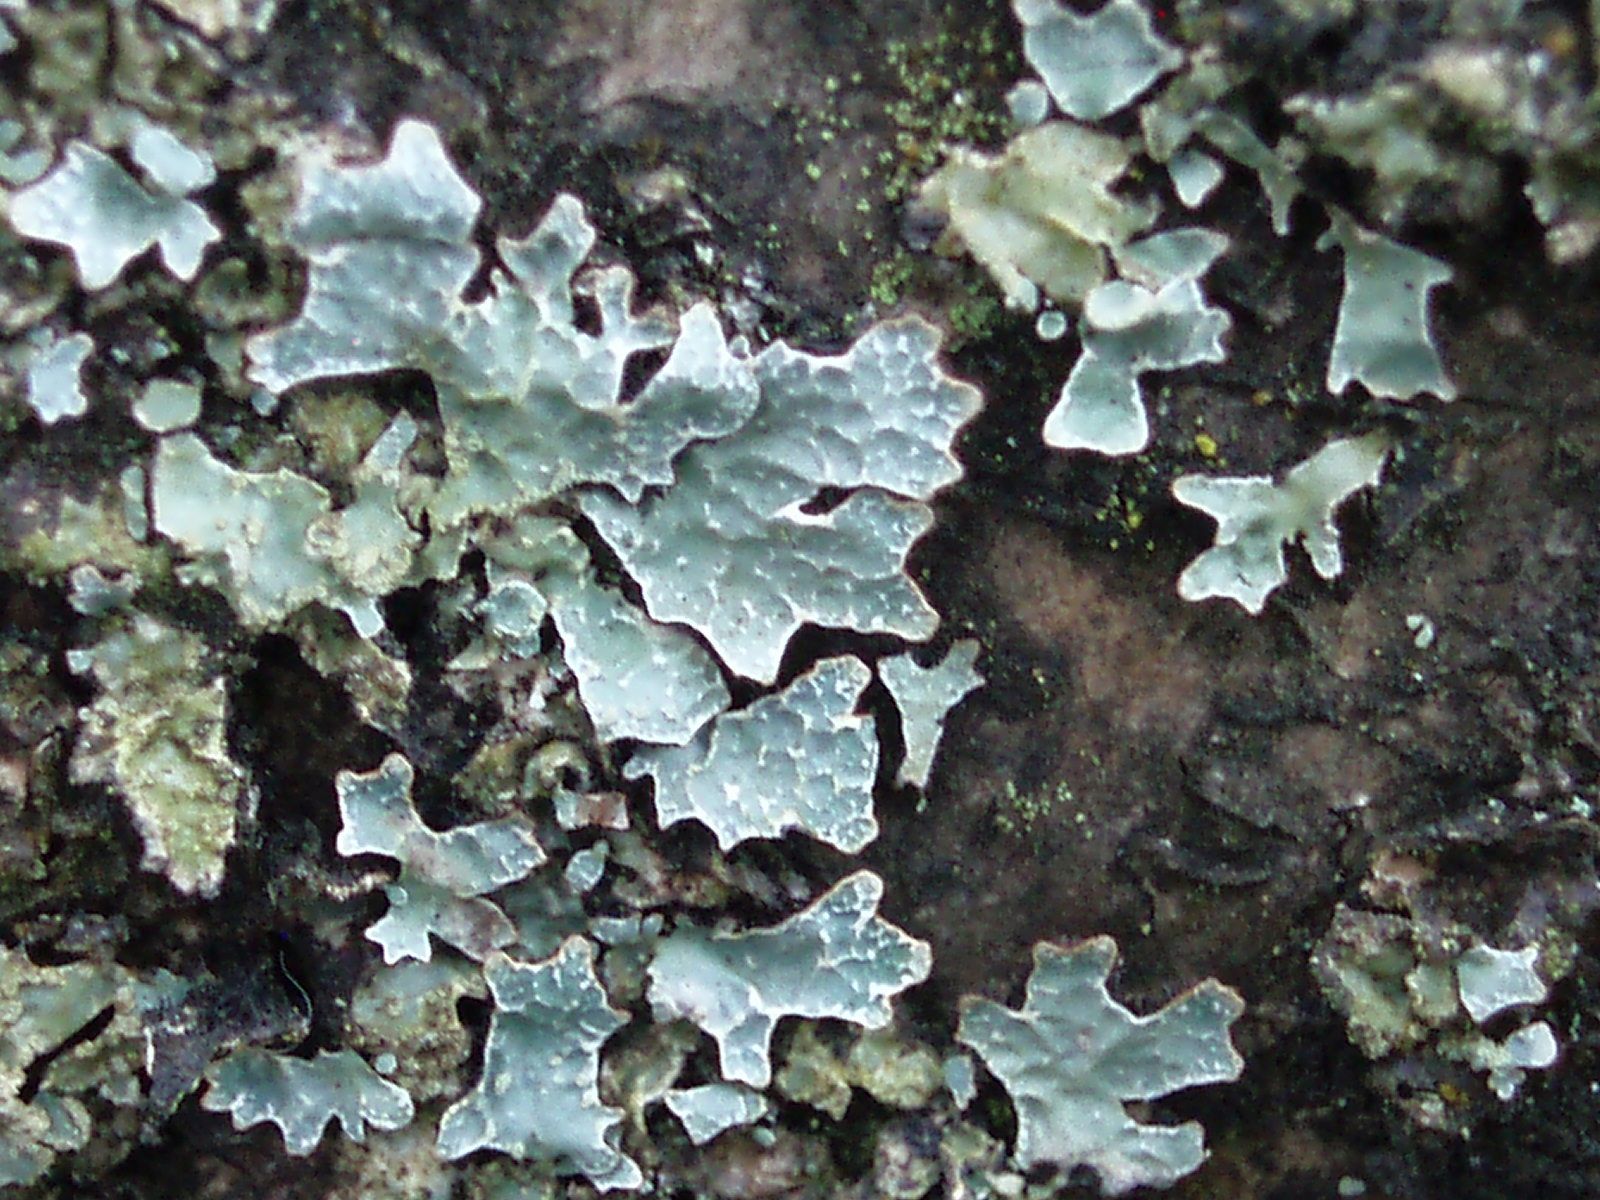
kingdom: Fungi
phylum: Ascomycota
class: Lecanoromycetes
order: Lecanorales
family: Parmeliaceae
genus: Parmelia
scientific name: Parmelia sulcata
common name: Netted shield lichen
